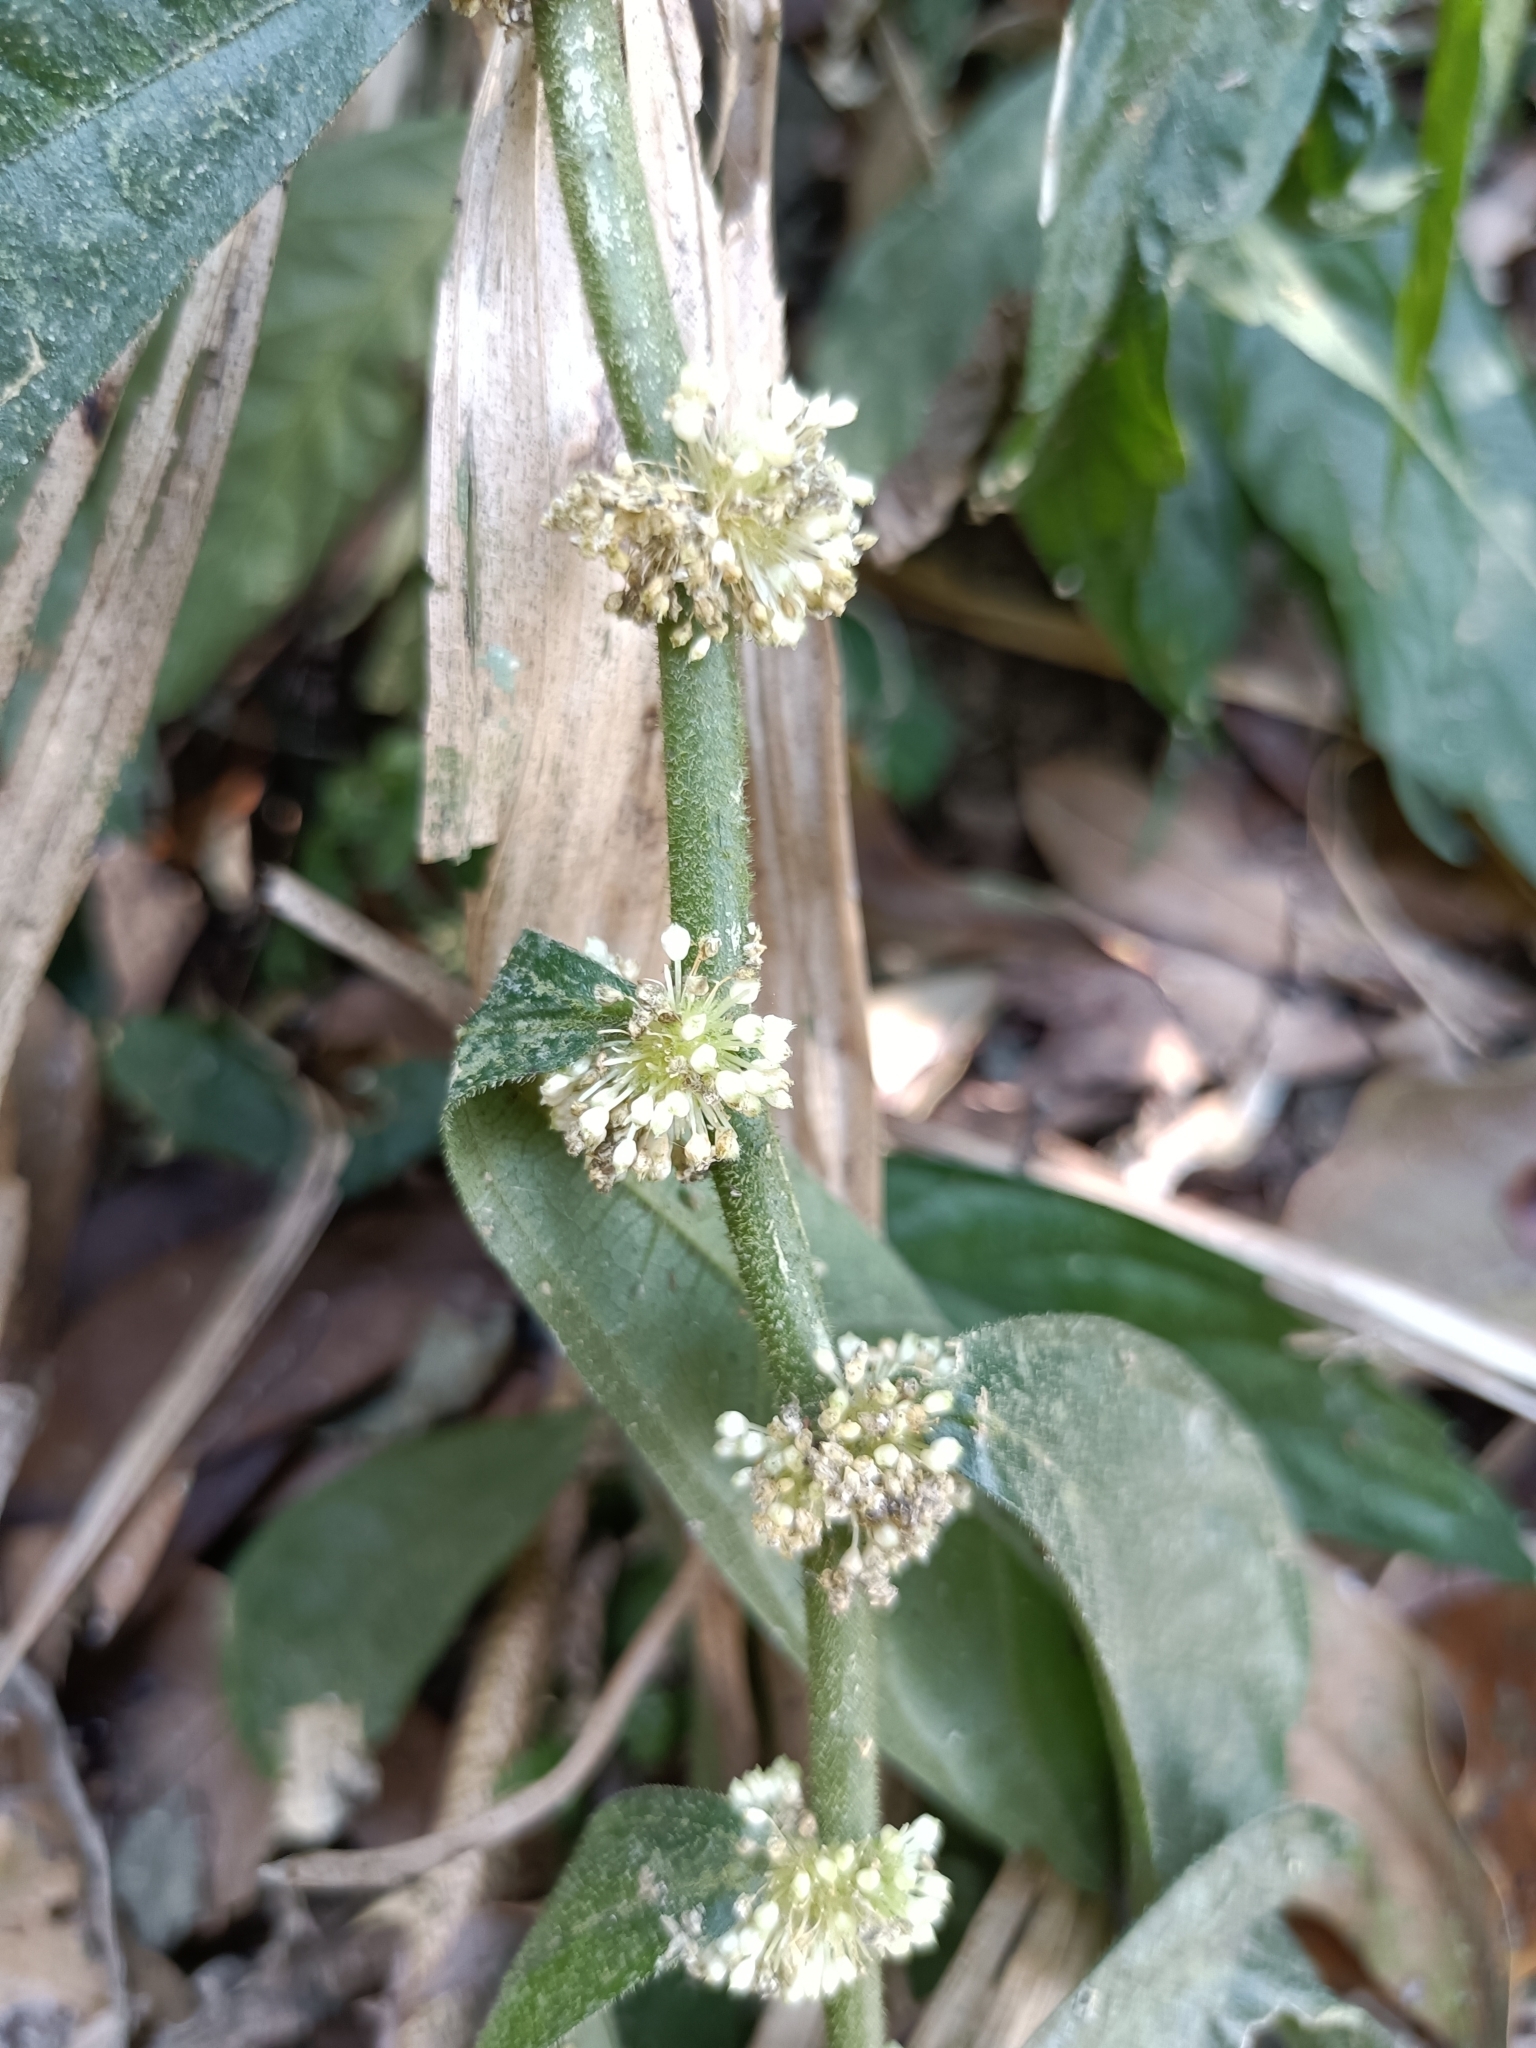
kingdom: Plantae
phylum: Tracheophyta
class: Magnoliopsida
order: Rosales
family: Urticaceae
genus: Elatostema
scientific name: Elatostema lineolatum
